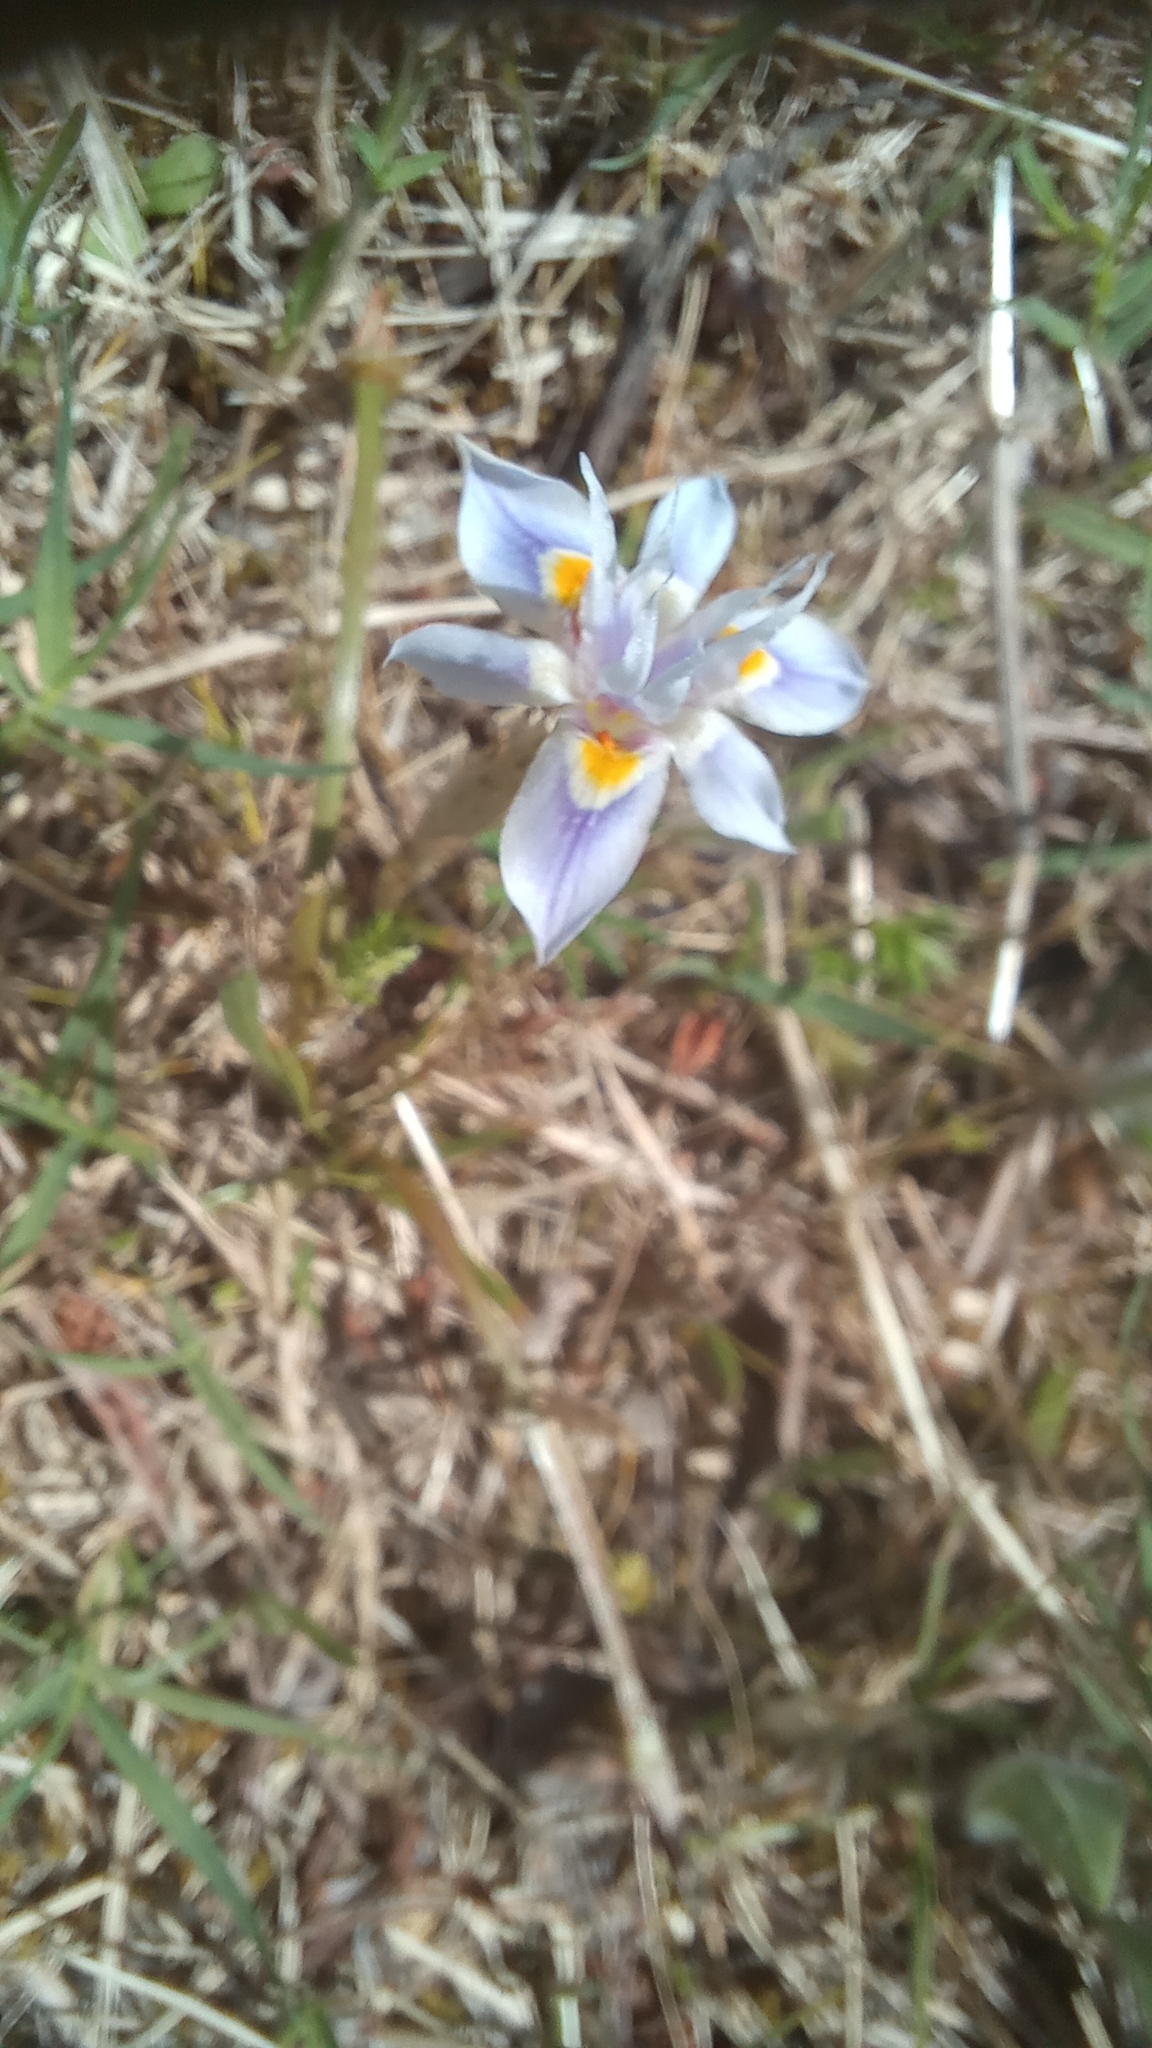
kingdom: Plantae
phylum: Tracheophyta
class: Liliopsida
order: Asparagales
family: Iridaceae
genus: Moraea
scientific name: Moraea setifolia
